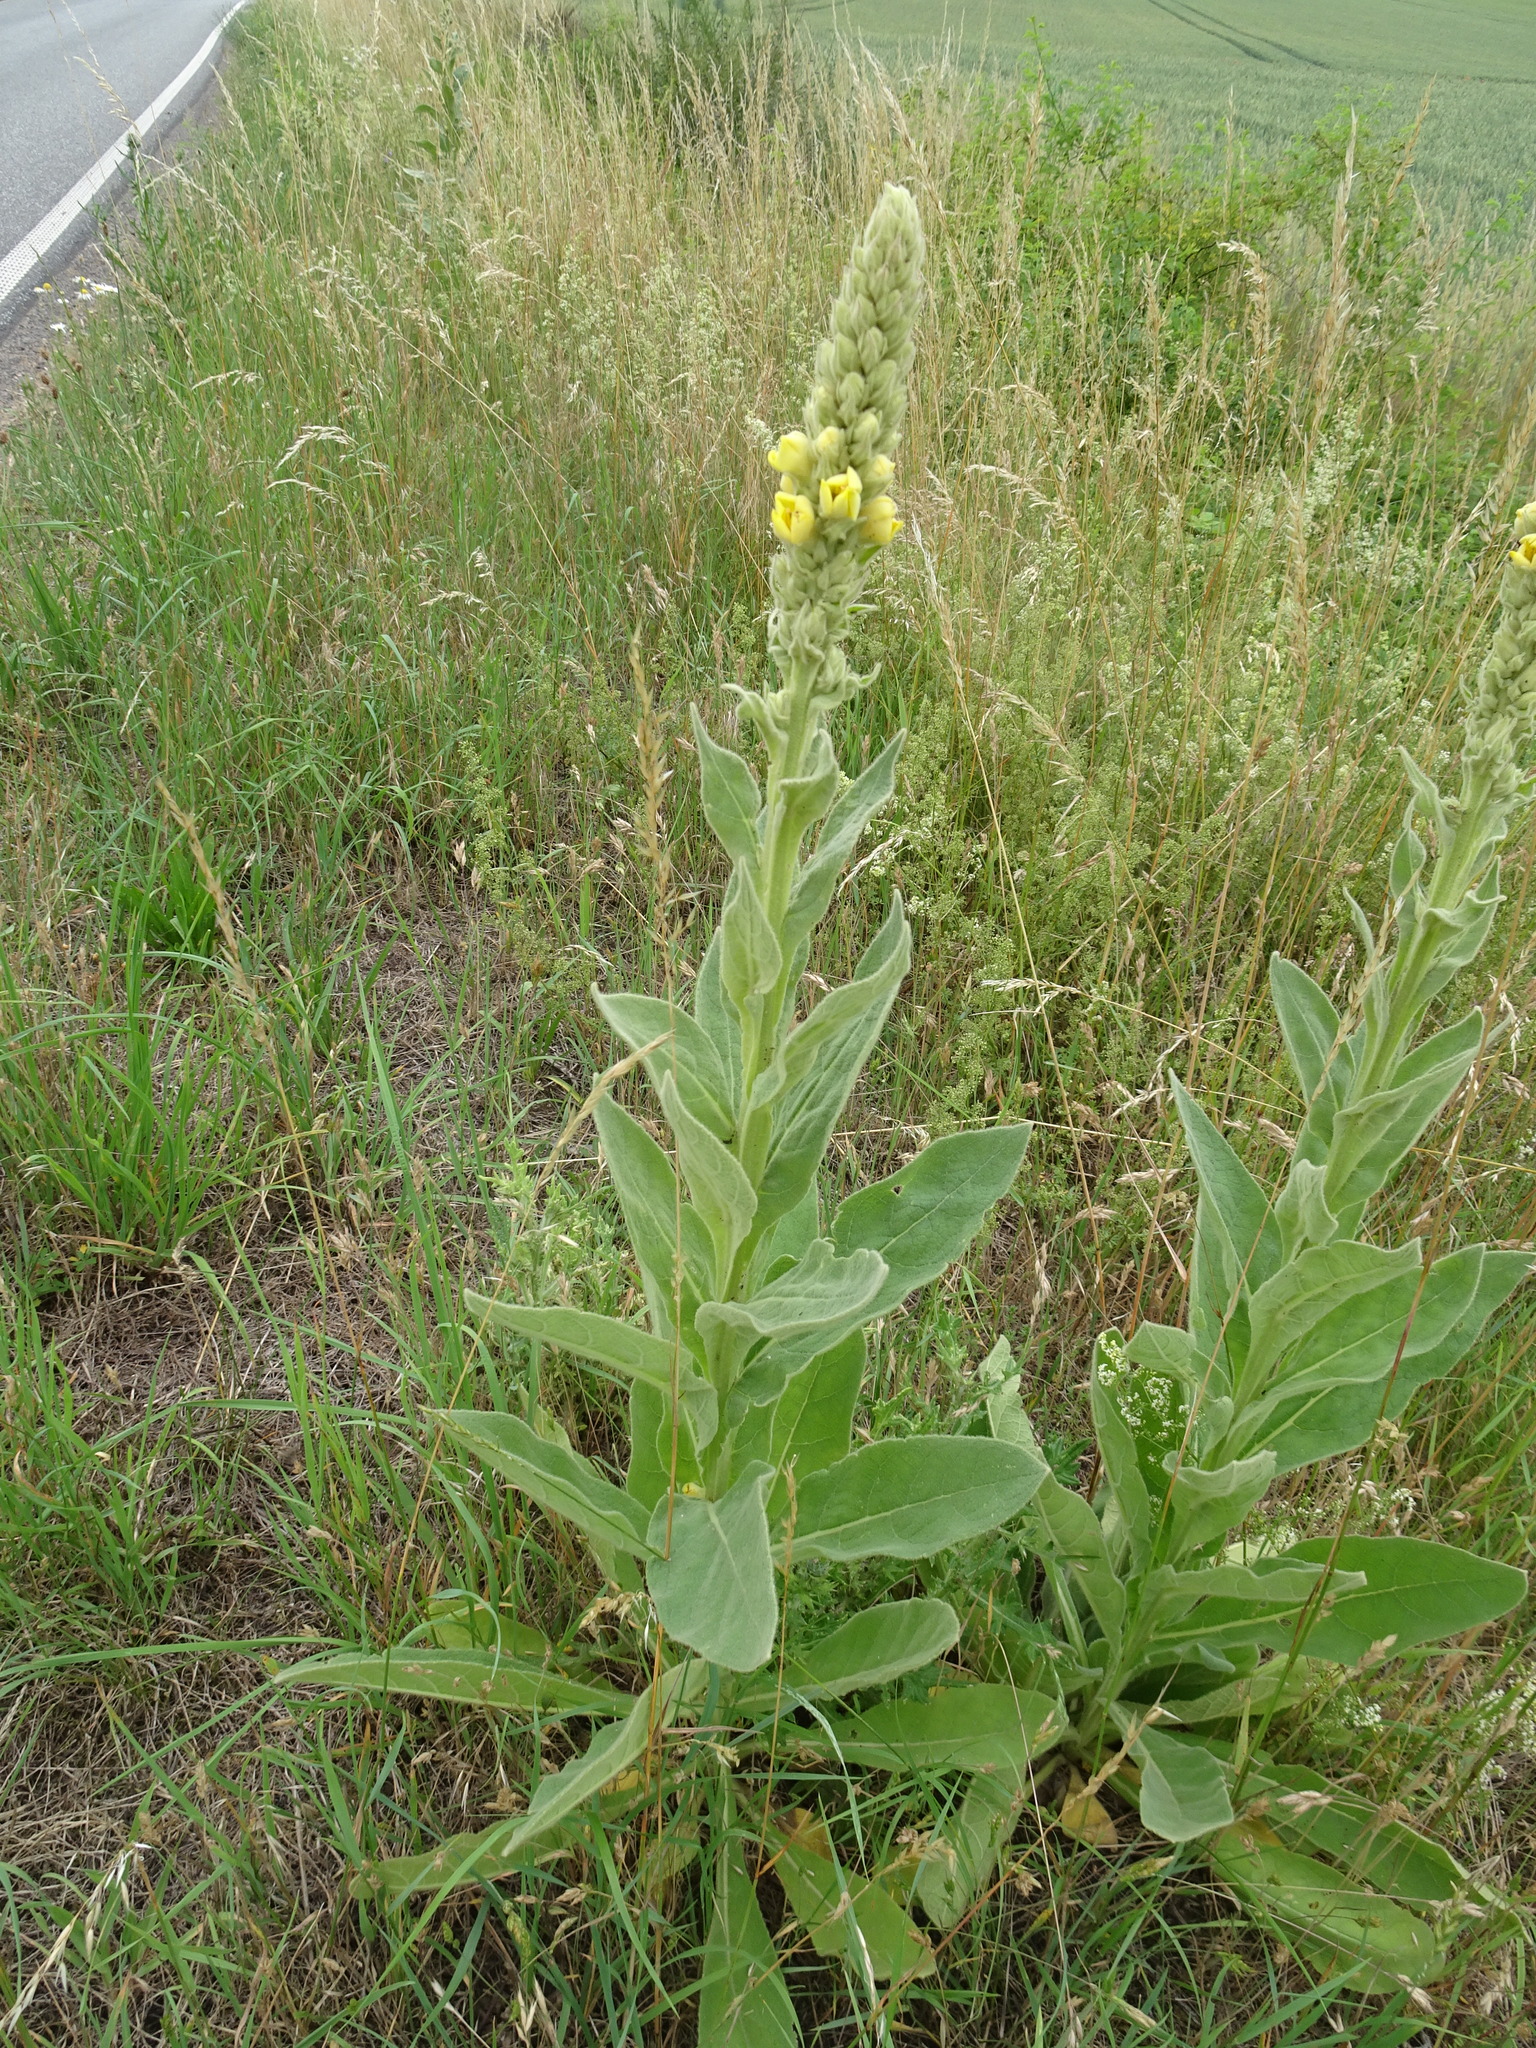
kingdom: Plantae
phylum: Tracheophyta
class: Magnoliopsida
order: Lamiales
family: Scrophulariaceae
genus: Verbascum
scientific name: Verbascum thapsus
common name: Common mullein
